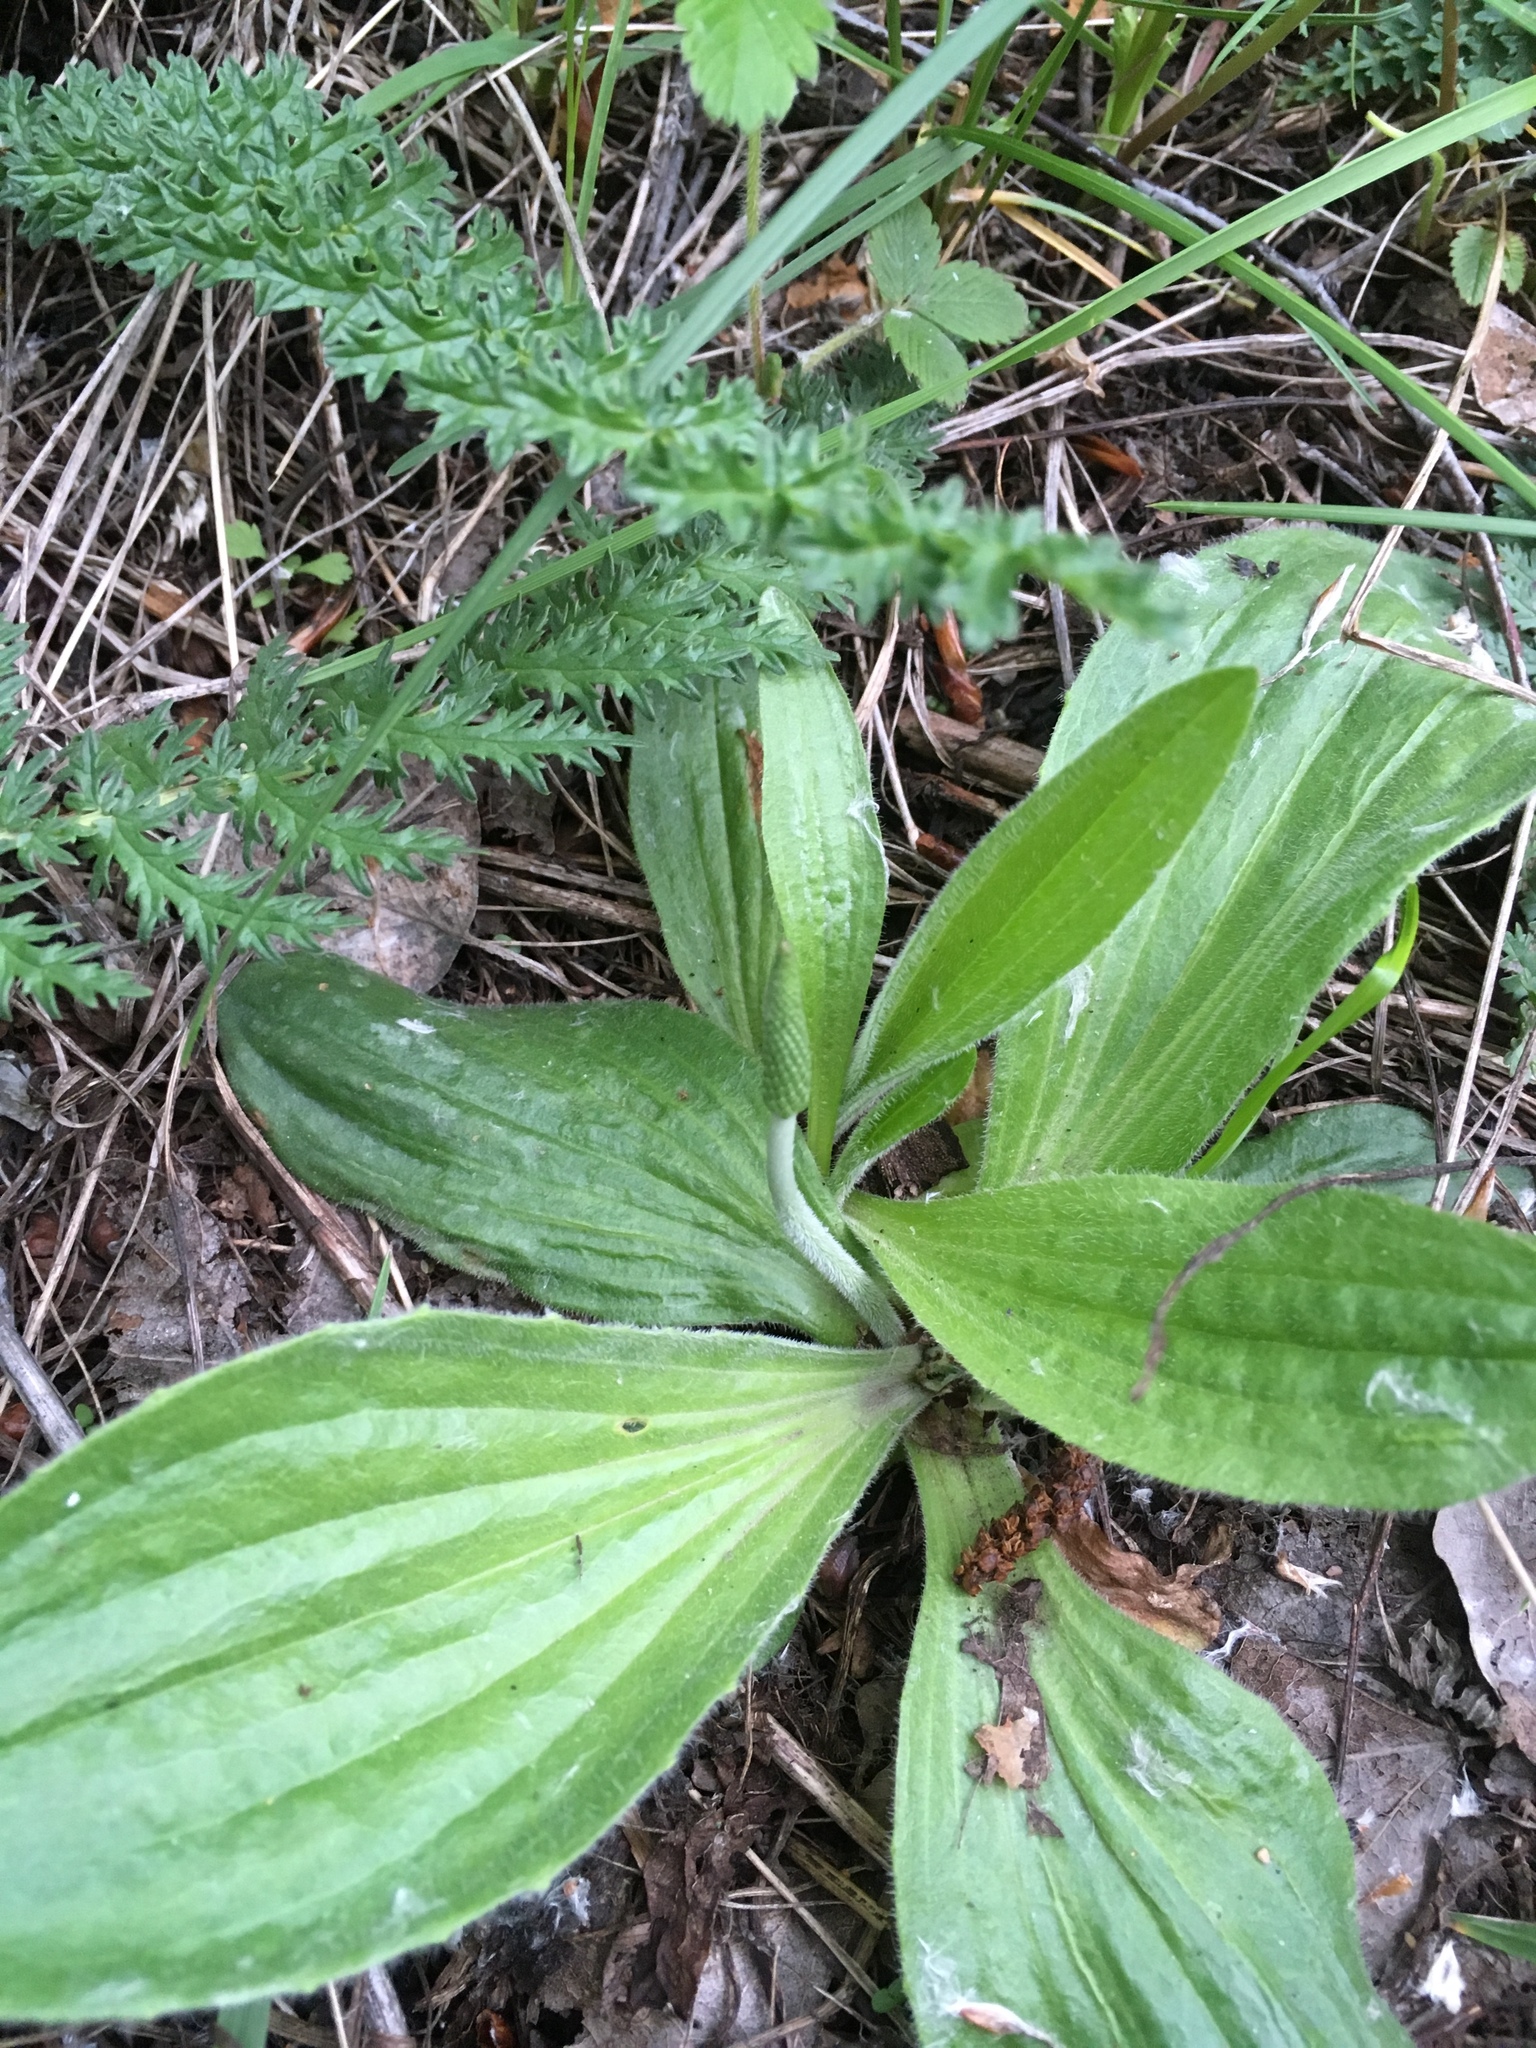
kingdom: Plantae
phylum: Tracheophyta
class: Magnoliopsida
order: Lamiales
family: Plantaginaceae
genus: Plantago
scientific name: Plantago urvillei
